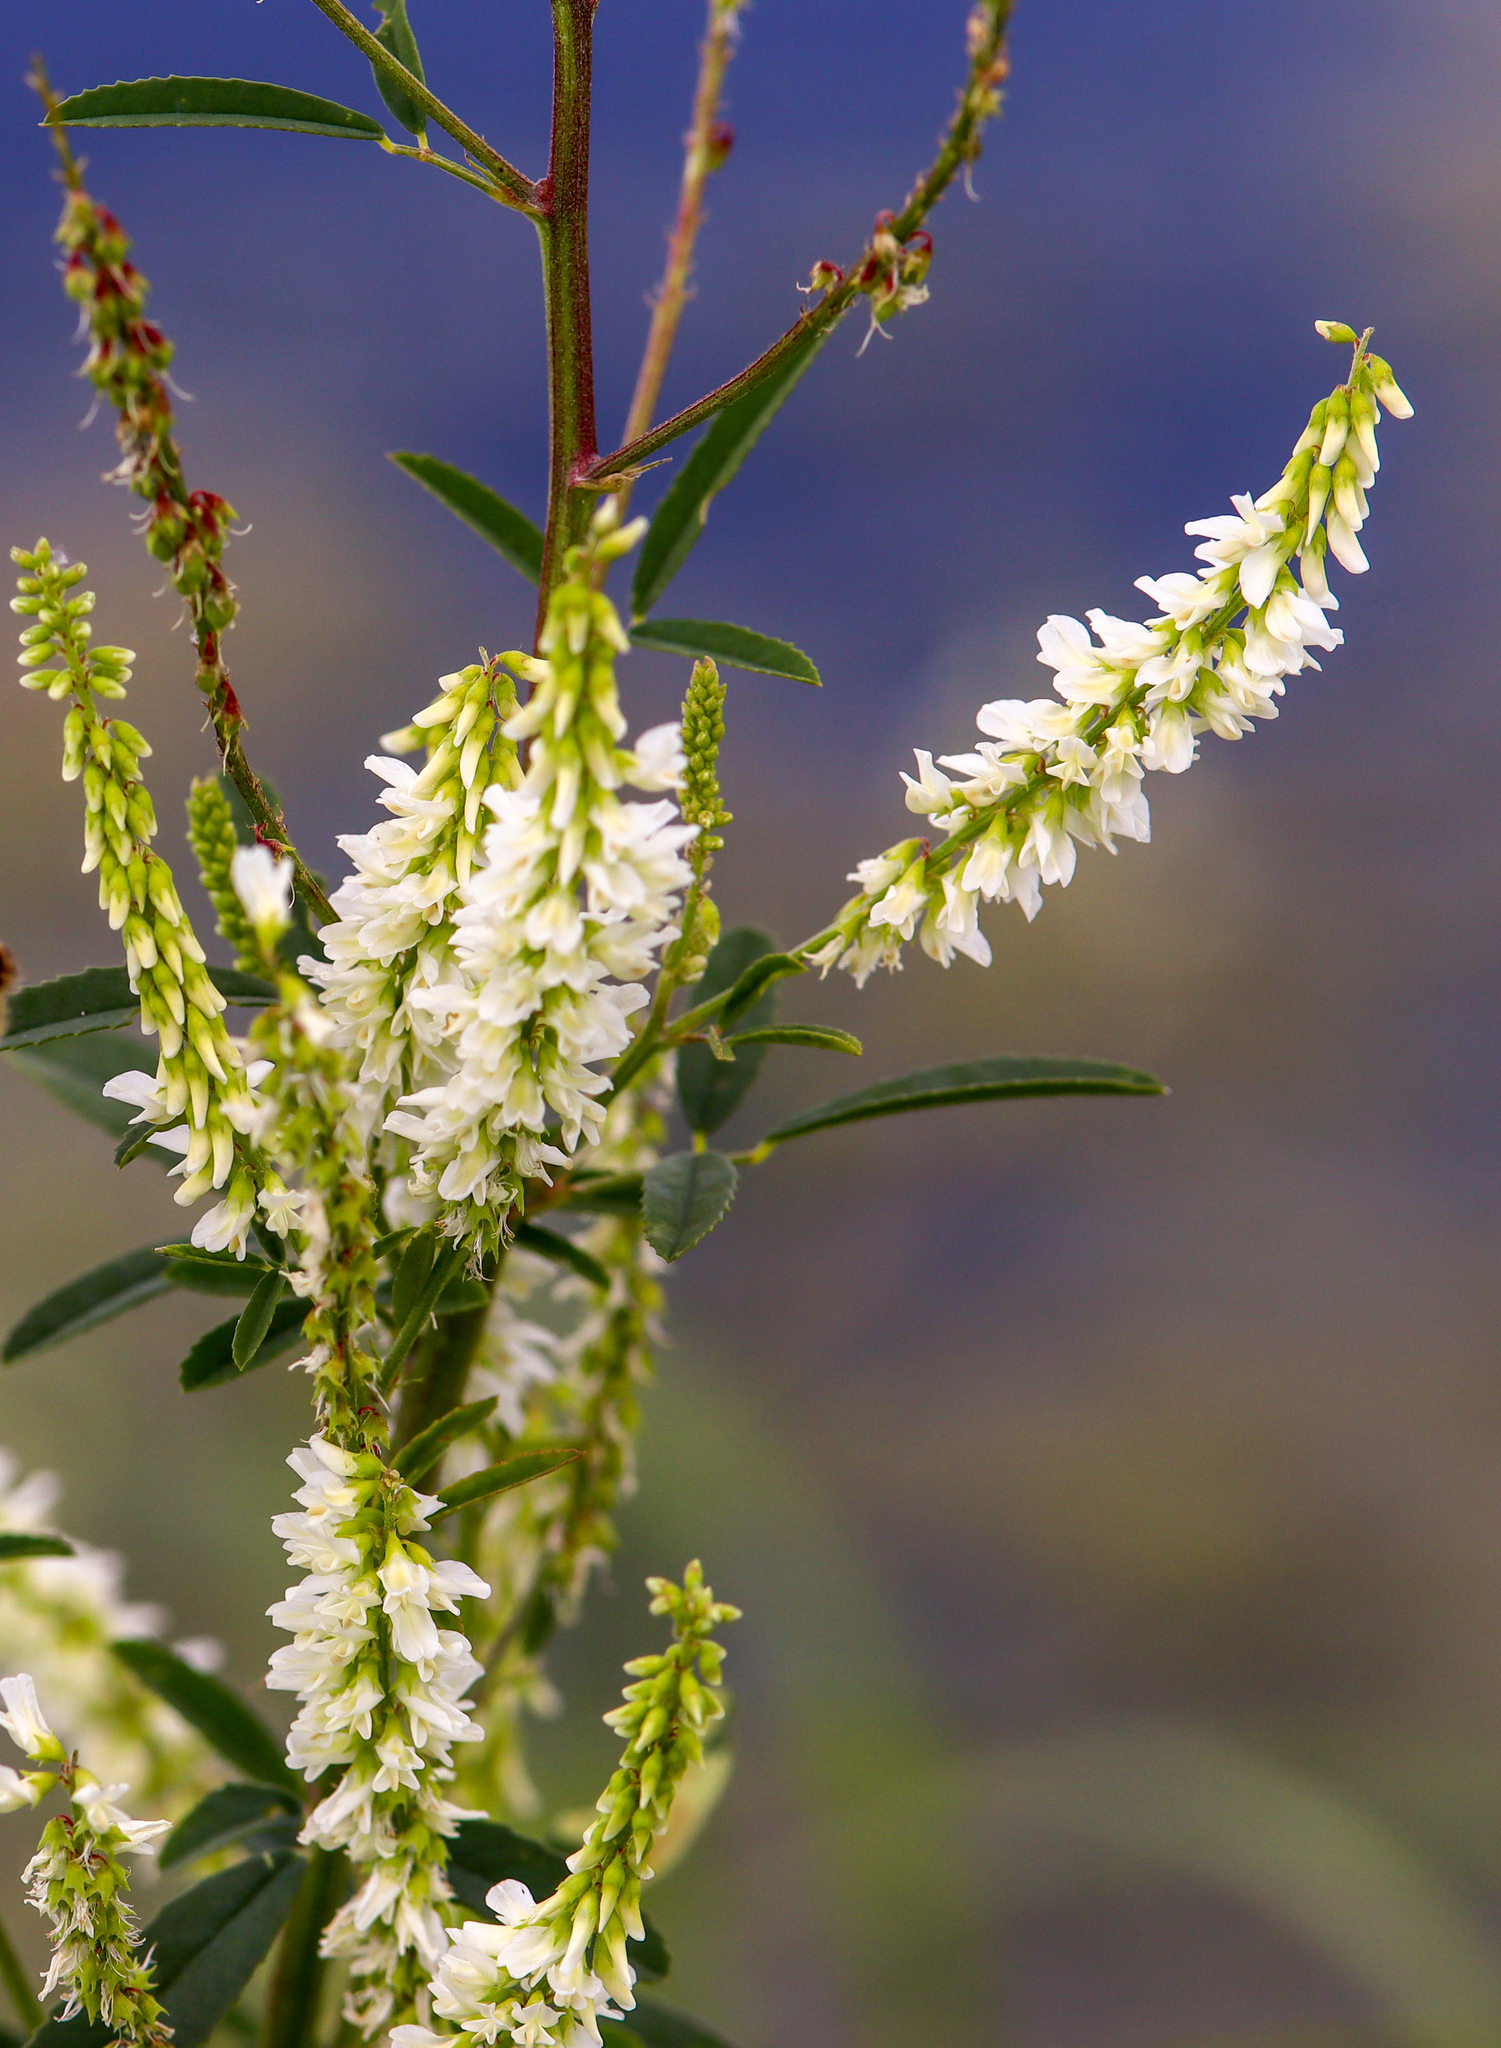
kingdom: Plantae
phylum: Tracheophyta
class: Magnoliopsida
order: Fabales
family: Fabaceae
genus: Melilotus
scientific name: Melilotus albus
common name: White melilot
